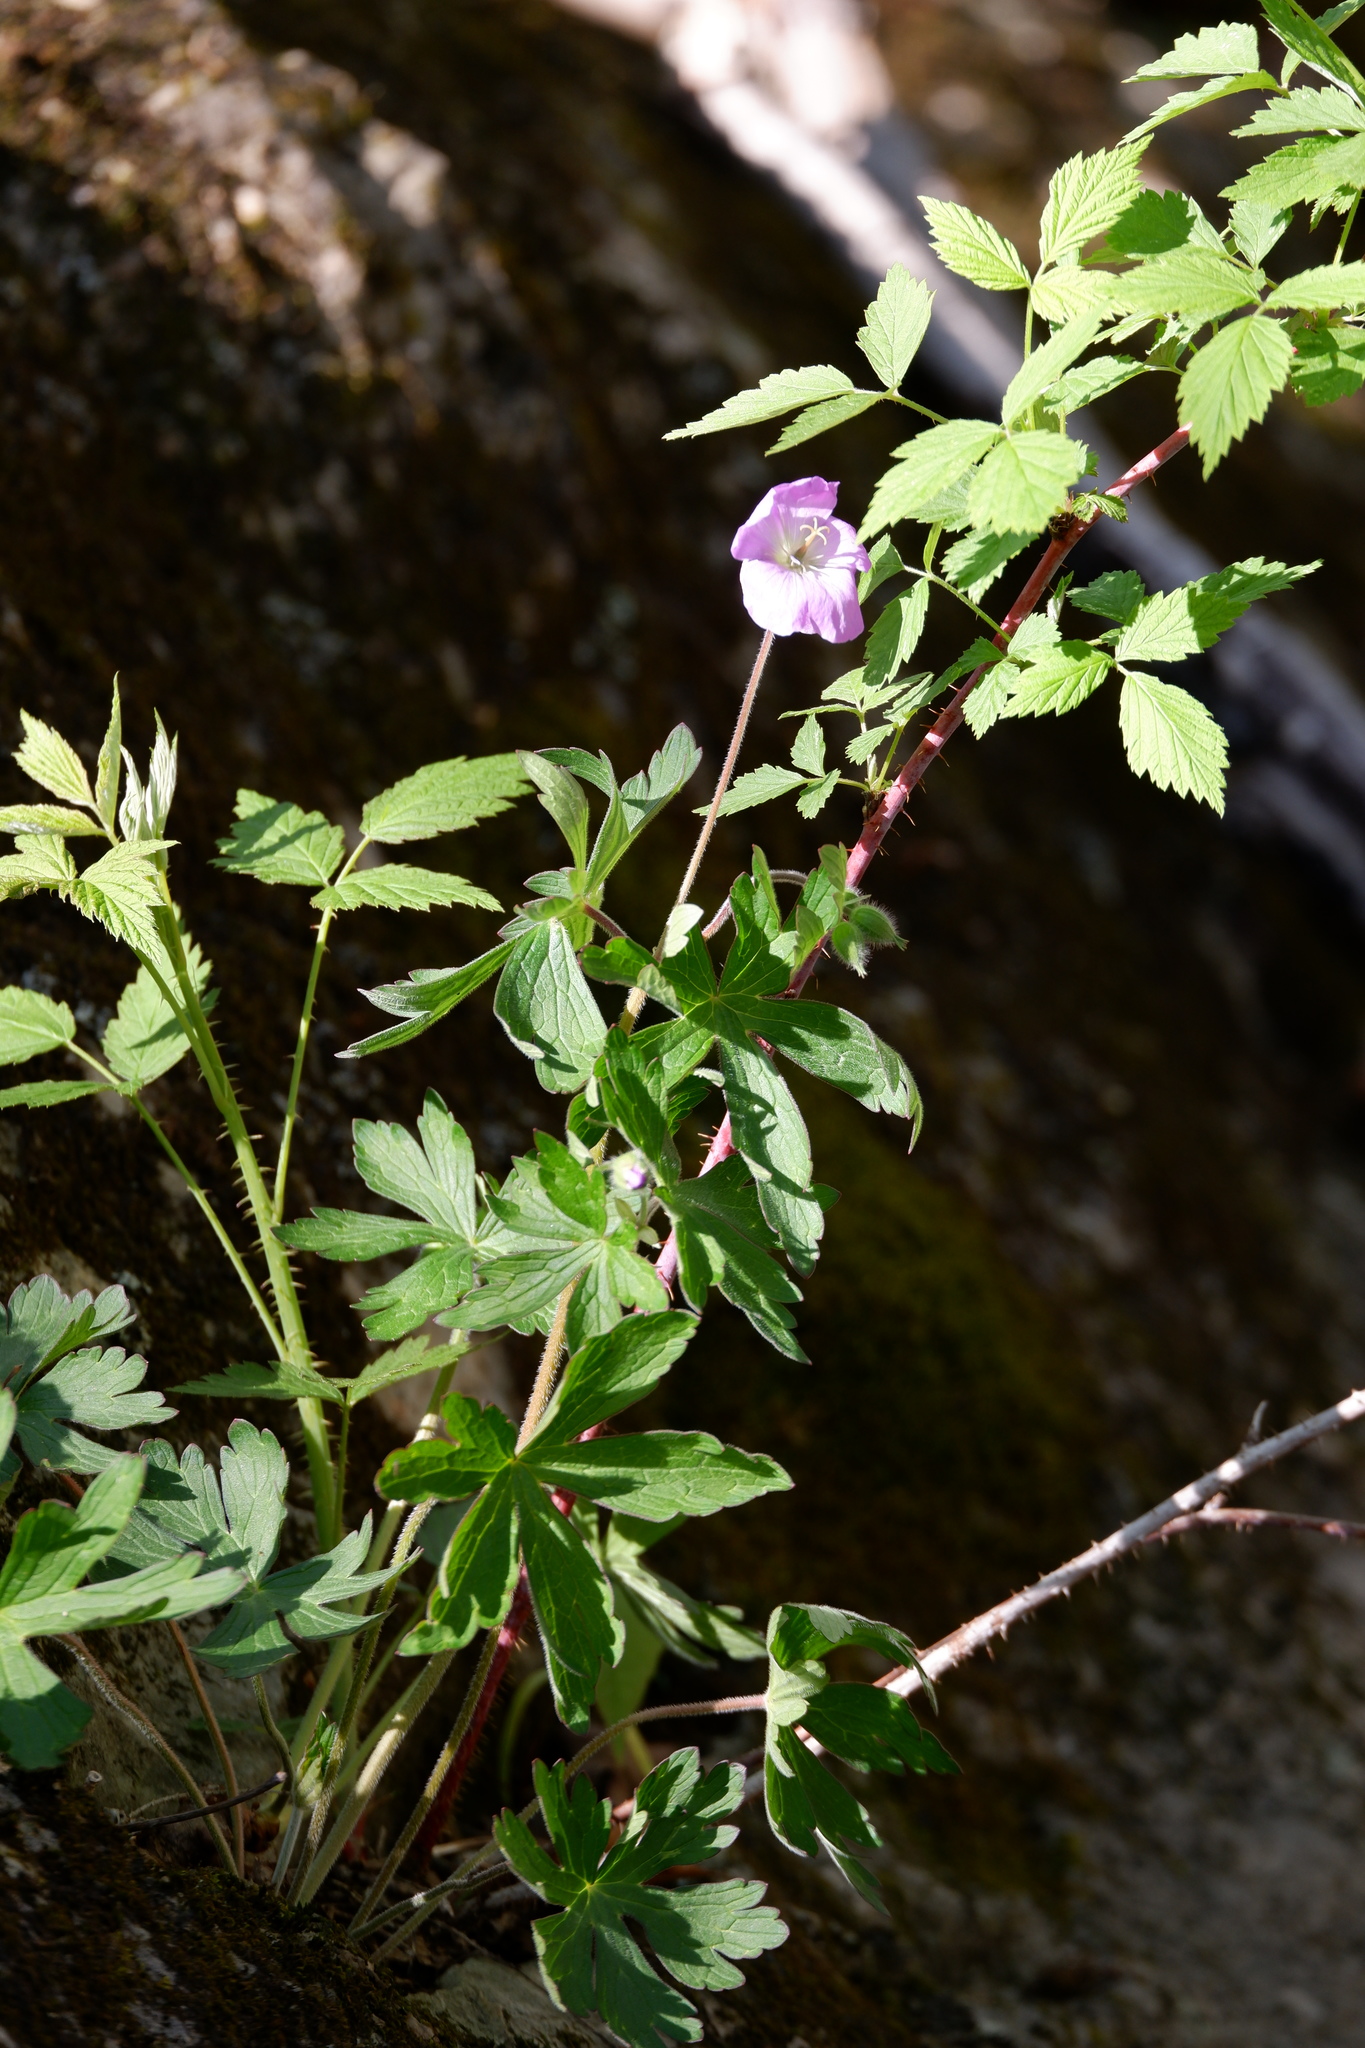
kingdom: Plantae
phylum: Tracheophyta
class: Magnoliopsida
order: Geraniales
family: Geraniaceae
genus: Geranium
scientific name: Geranium maculatum
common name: Spotted geranium
